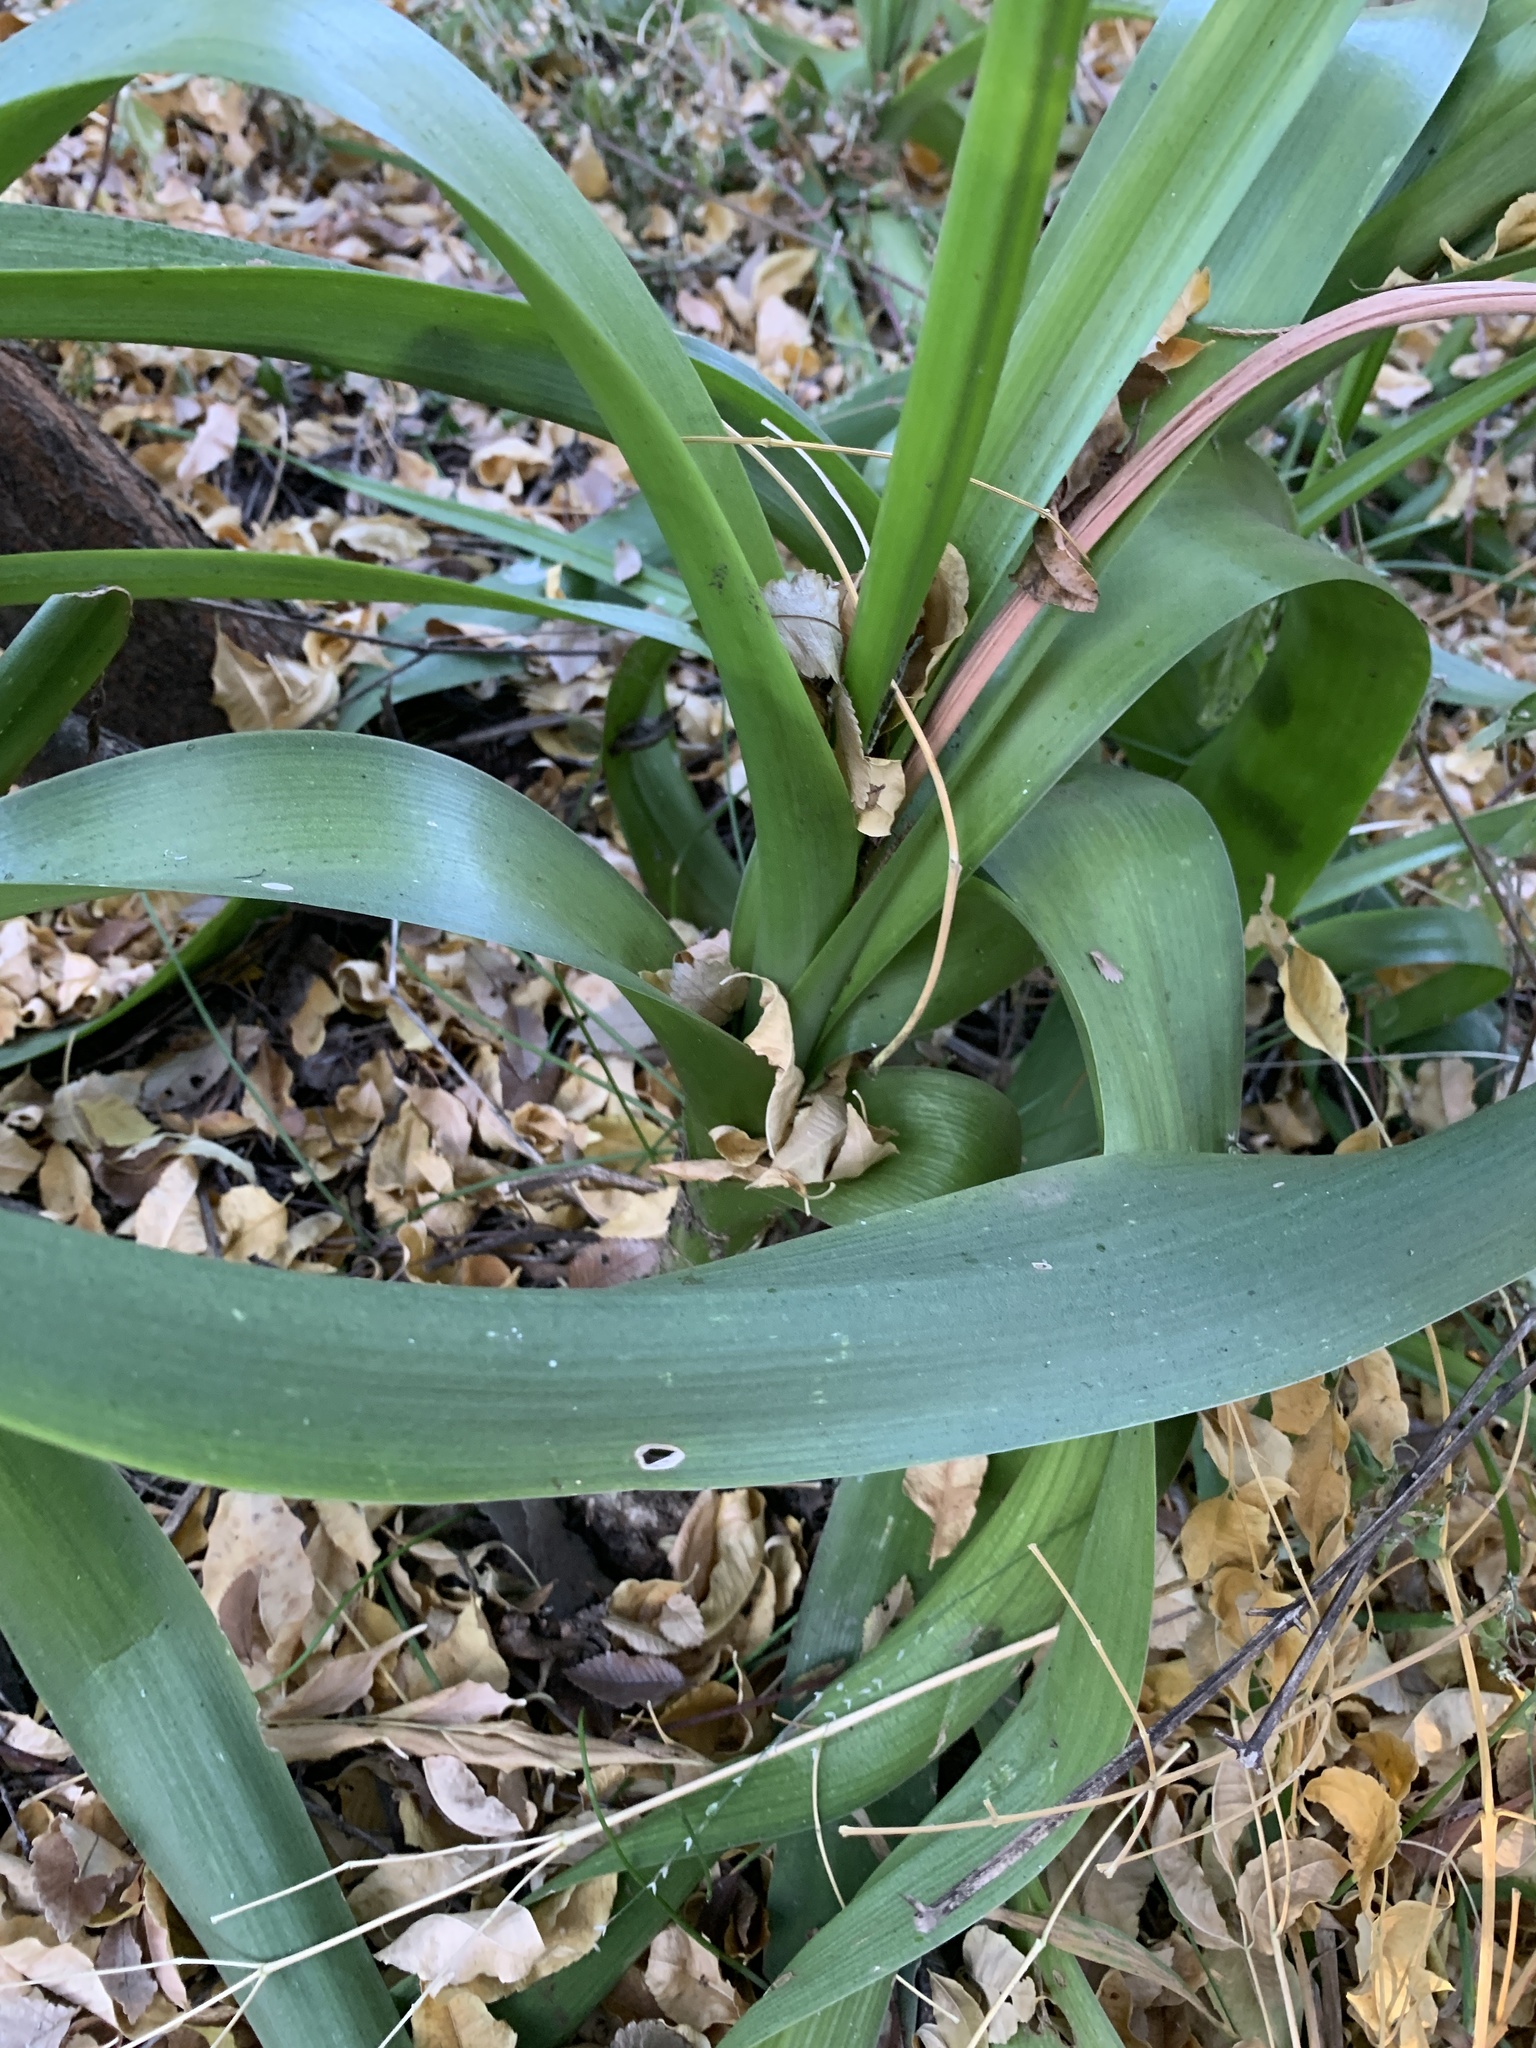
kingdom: Plantae
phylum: Tracheophyta
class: Liliopsida
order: Asparagales
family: Asparagaceae
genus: Albuca
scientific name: Albuca bracteata
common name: Sea-onion
